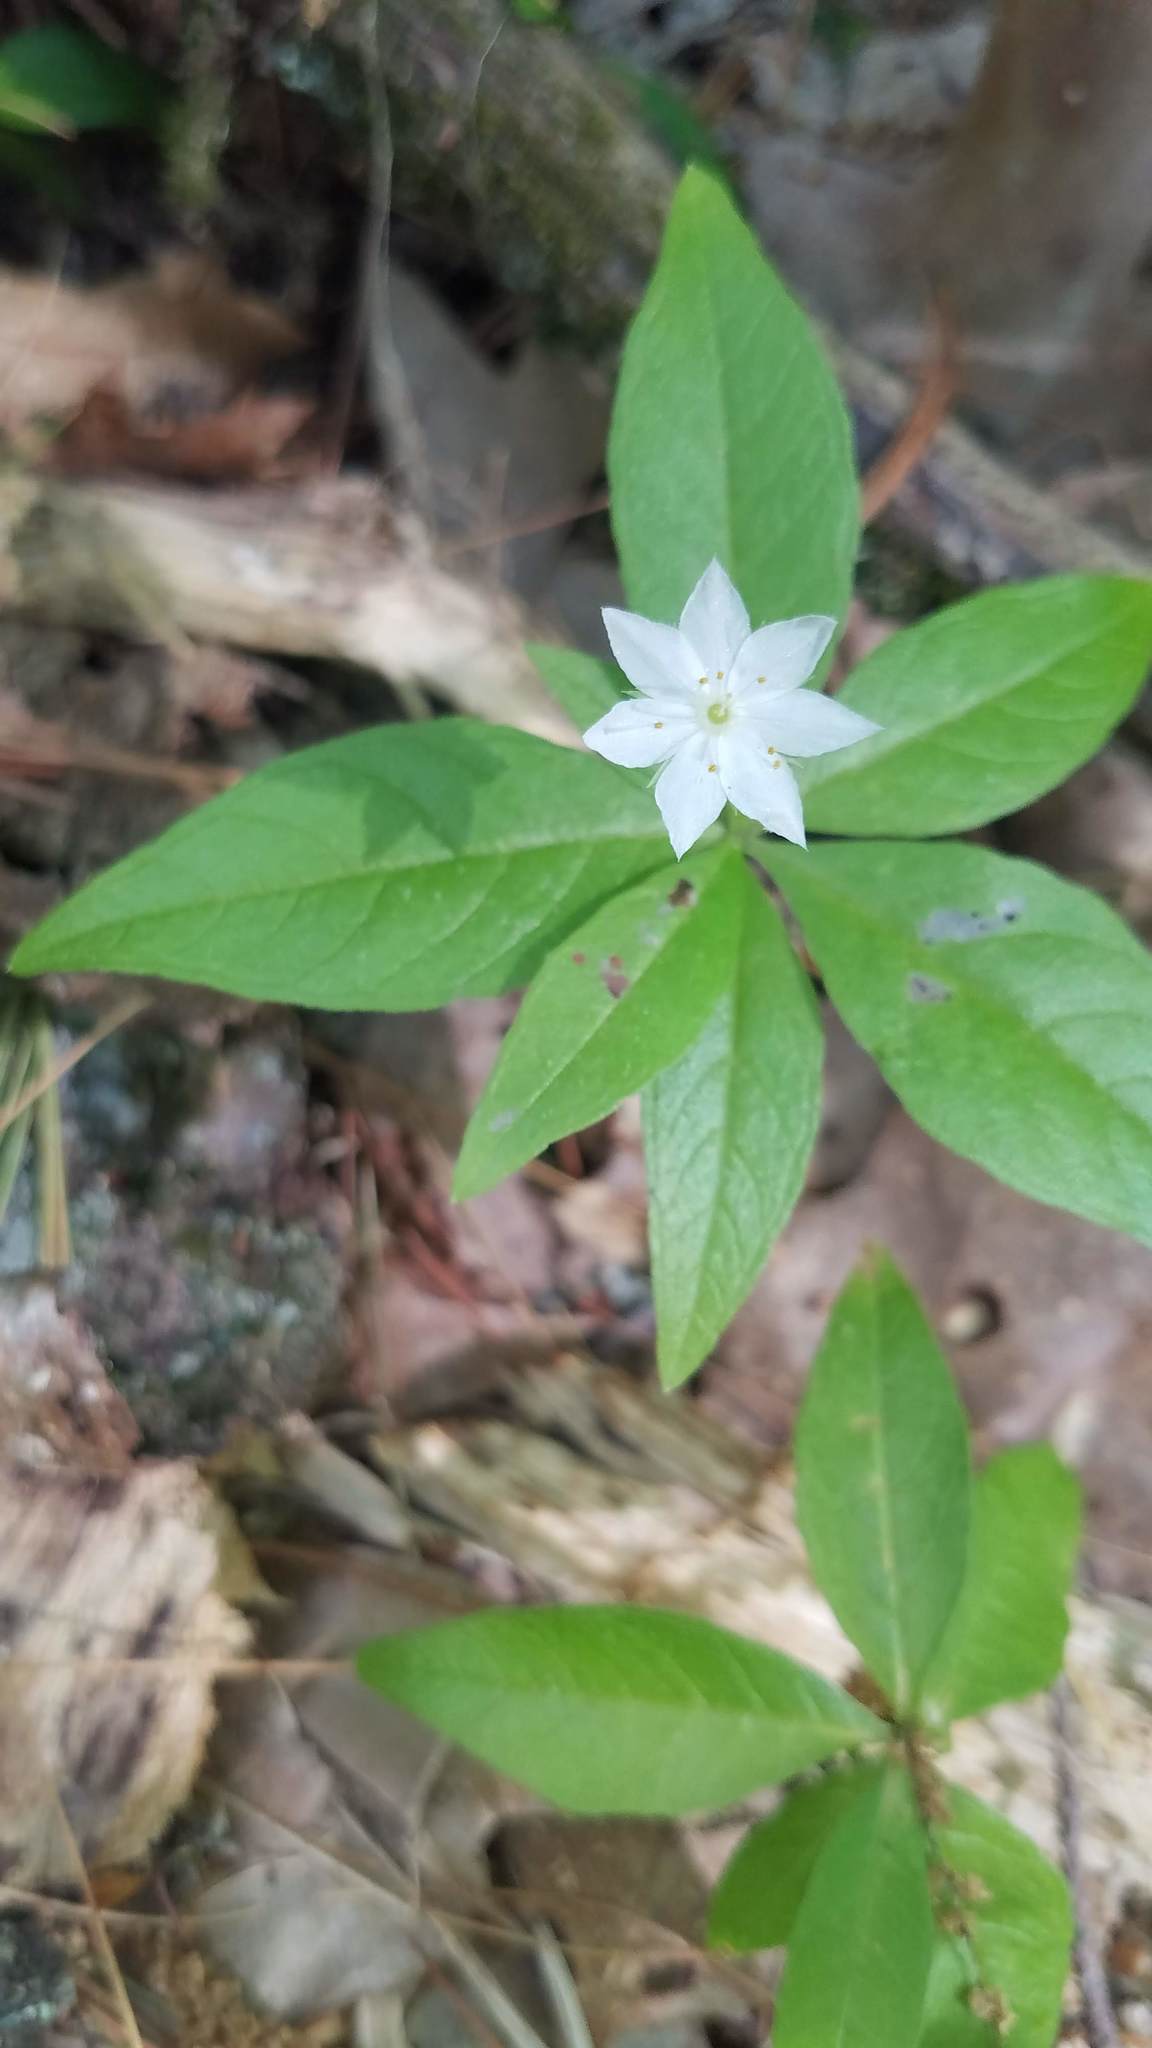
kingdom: Plantae
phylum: Tracheophyta
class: Magnoliopsida
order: Ericales
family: Primulaceae
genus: Lysimachia
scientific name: Lysimachia borealis
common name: American starflower
